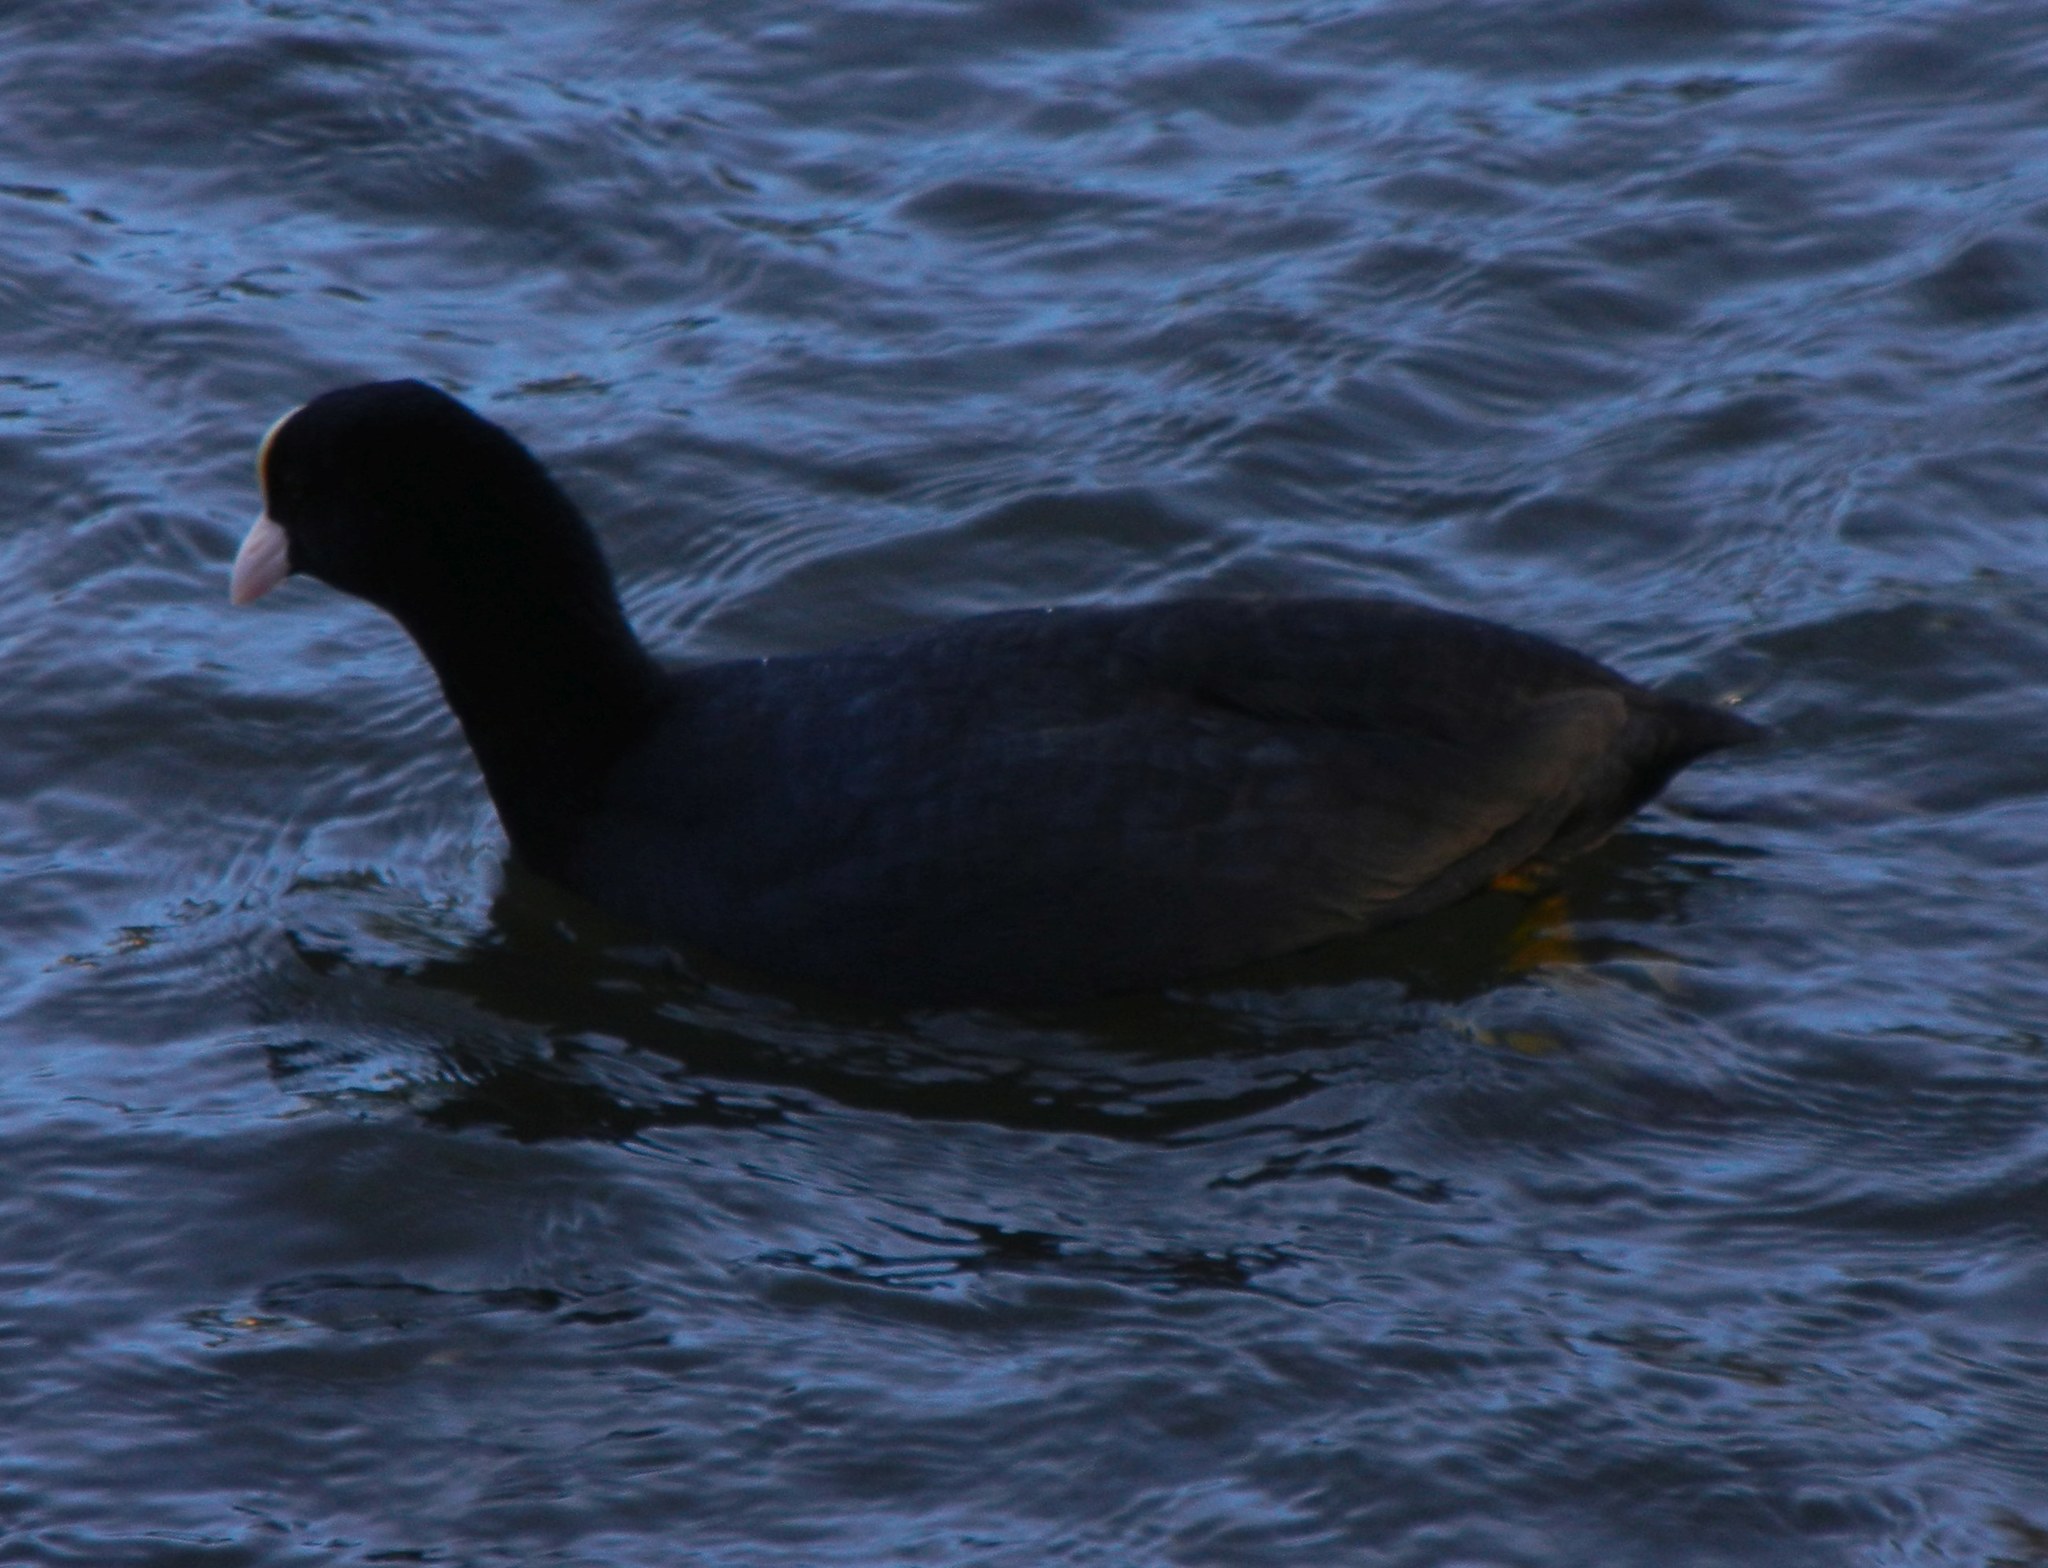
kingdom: Animalia
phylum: Chordata
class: Aves
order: Gruiformes
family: Rallidae
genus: Fulica
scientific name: Fulica atra
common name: Eurasian coot
